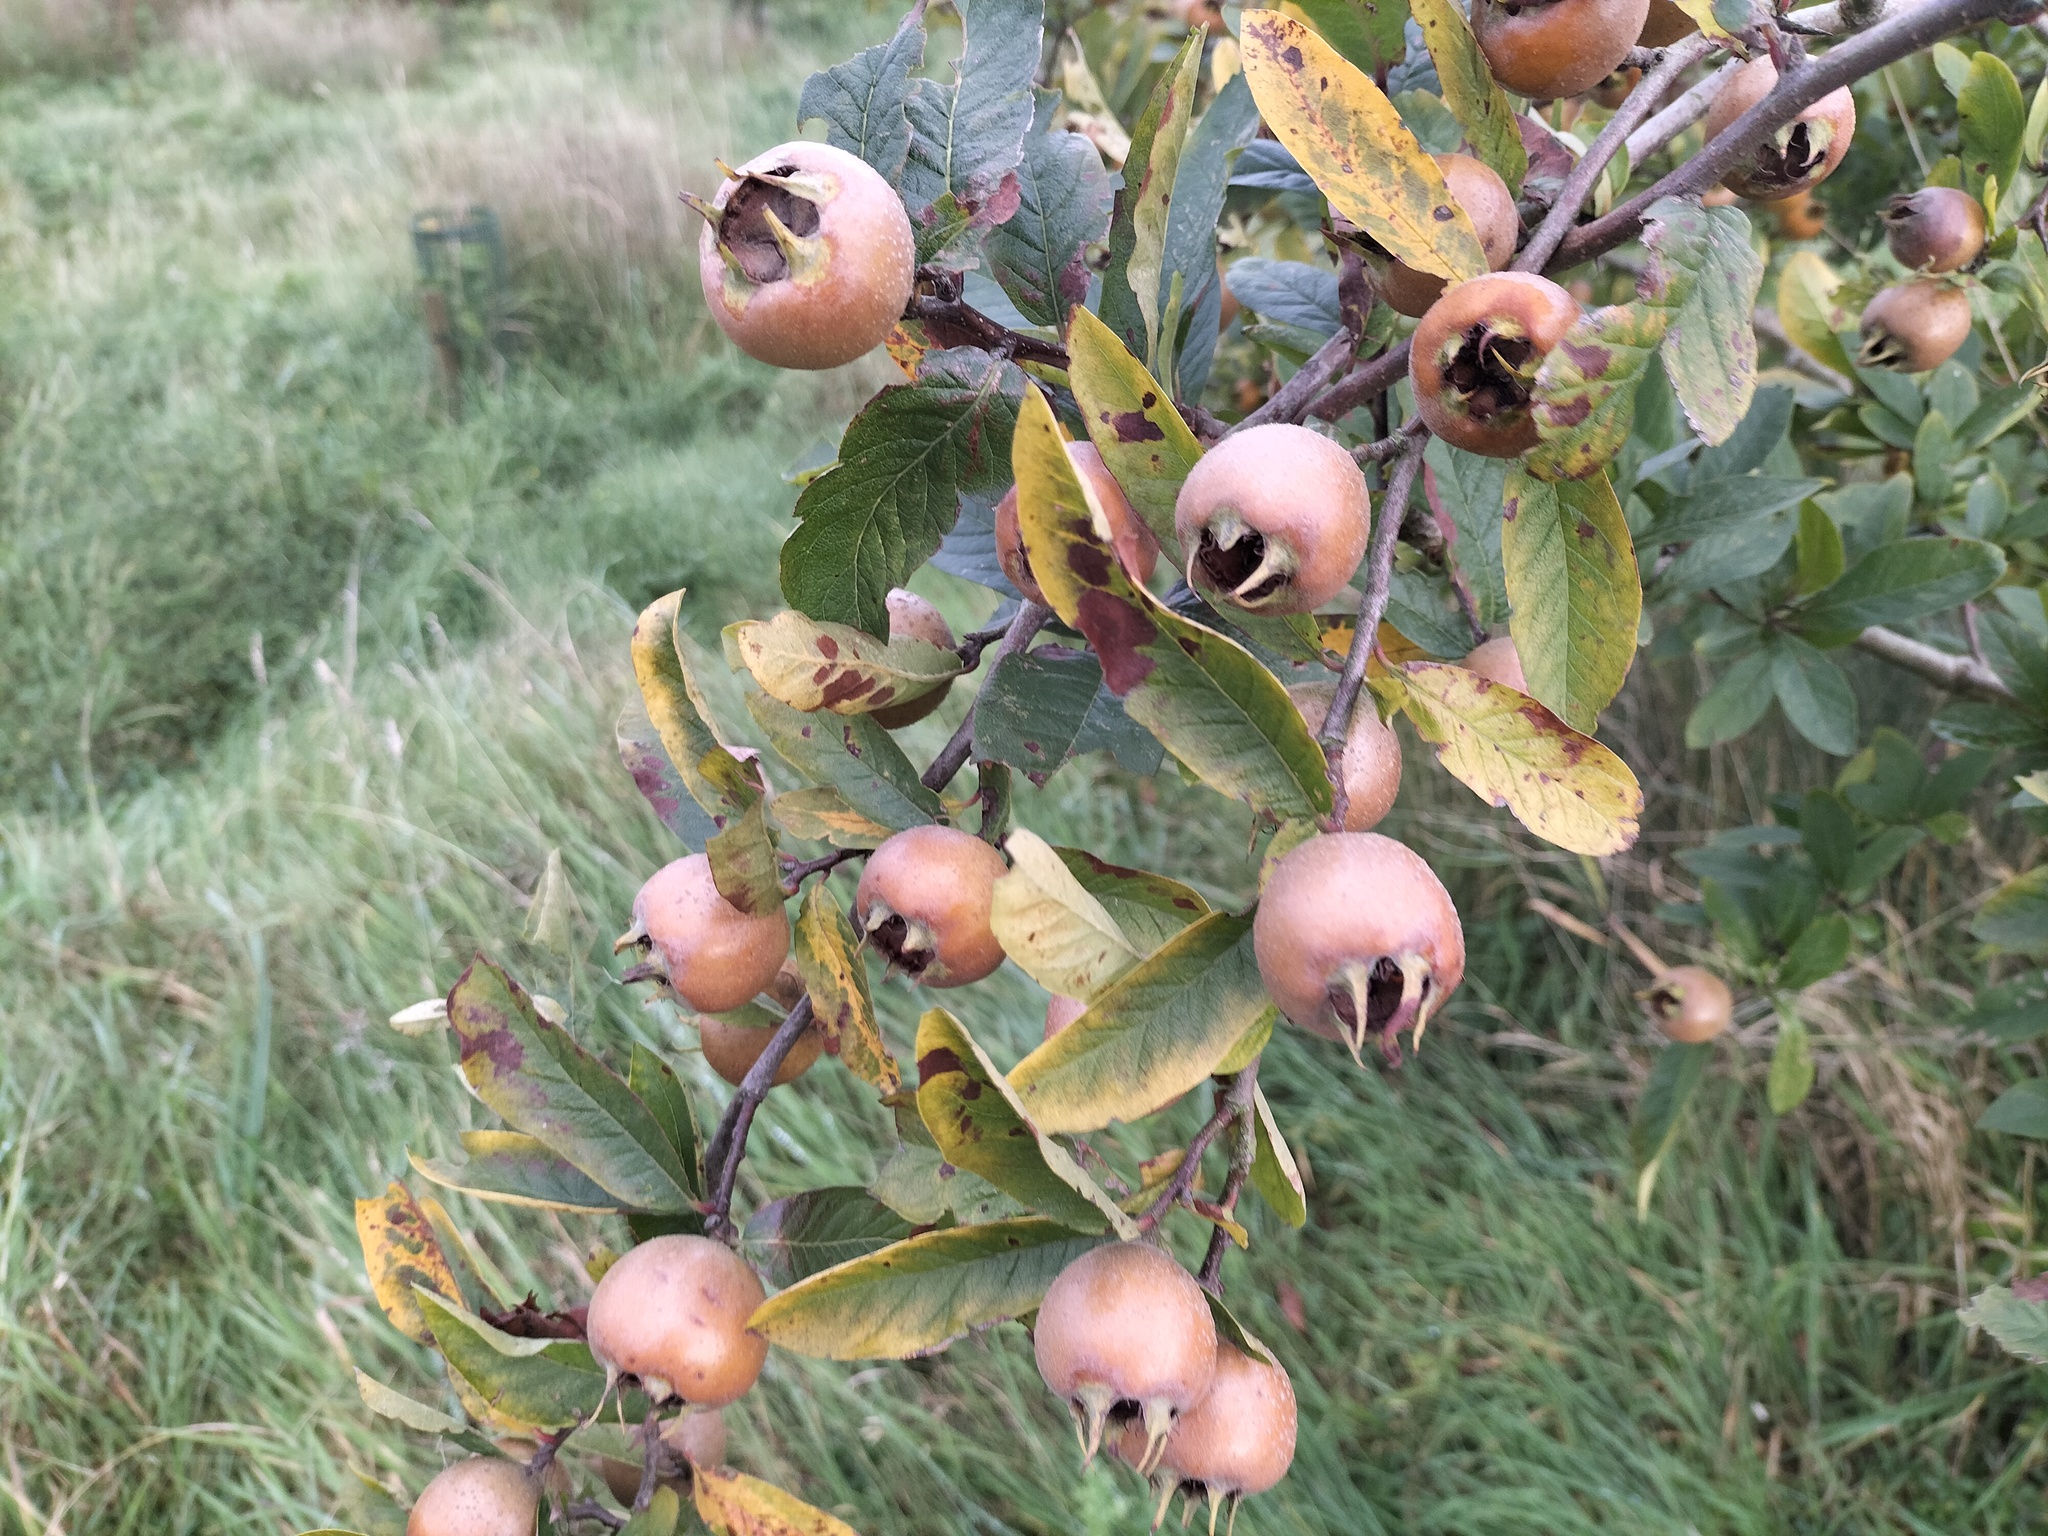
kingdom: Plantae
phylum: Tracheophyta
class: Magnoliopsida
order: Rosales
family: Rosaceae
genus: Mespilus
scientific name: Mespilus germanica
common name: Medlar
